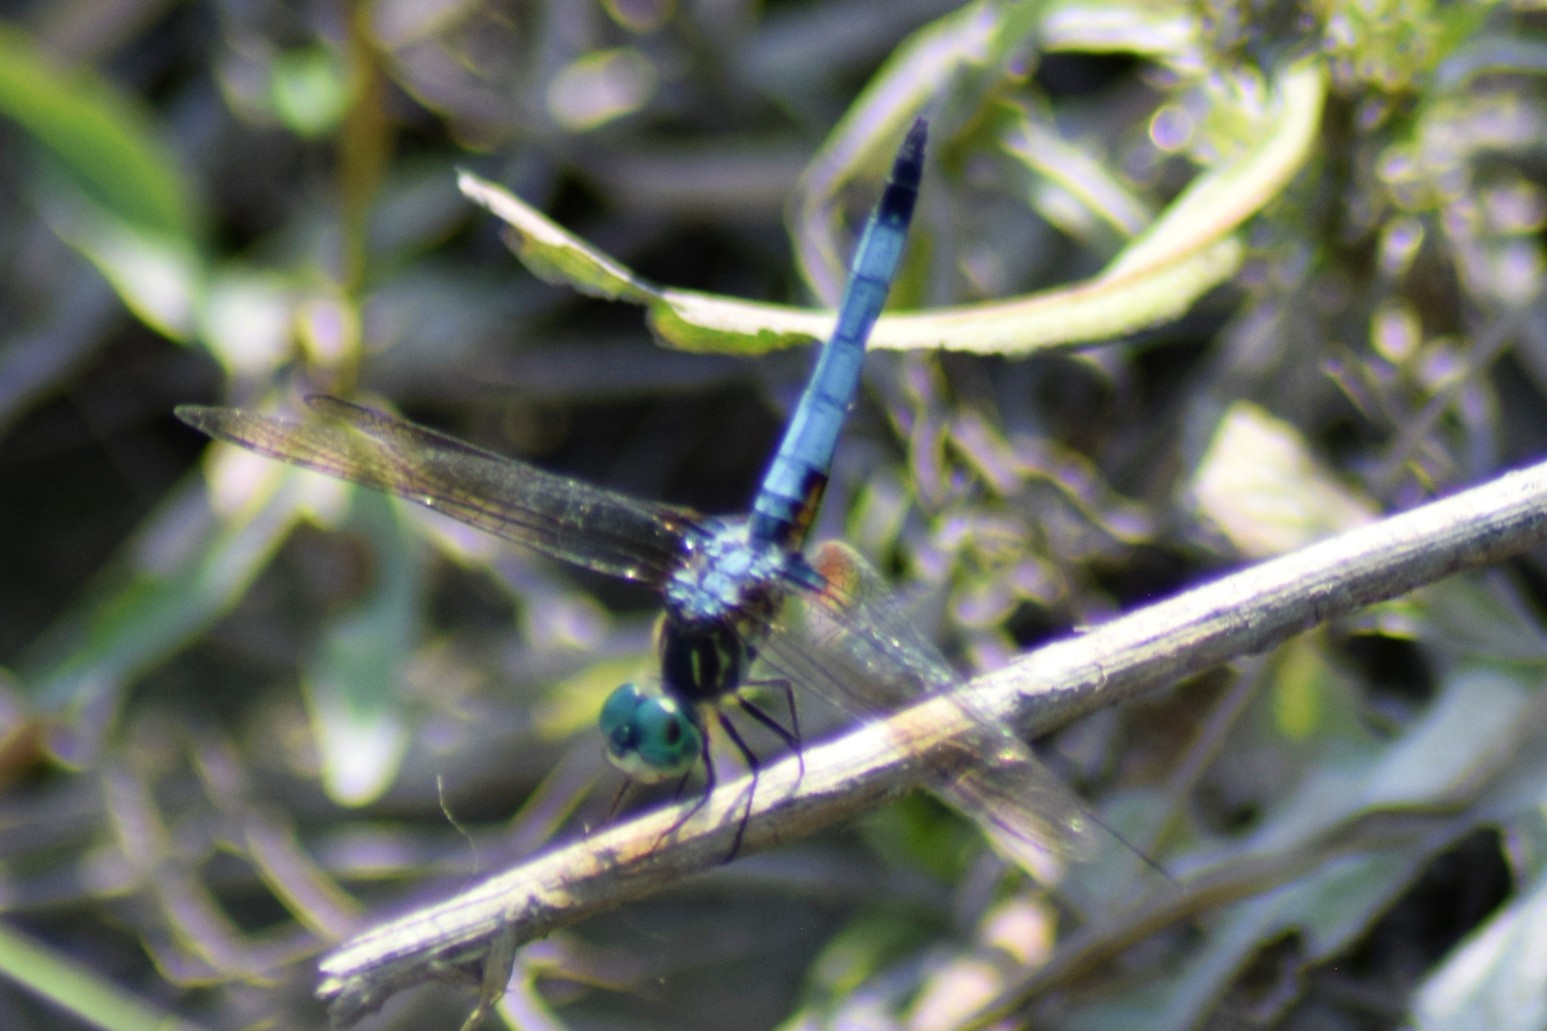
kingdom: Animalia
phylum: Arthropoda
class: Insecta
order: Odonata
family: Libellulidae
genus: Pachydiplax
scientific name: Pachydiplax longipennis
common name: Blue dasher
